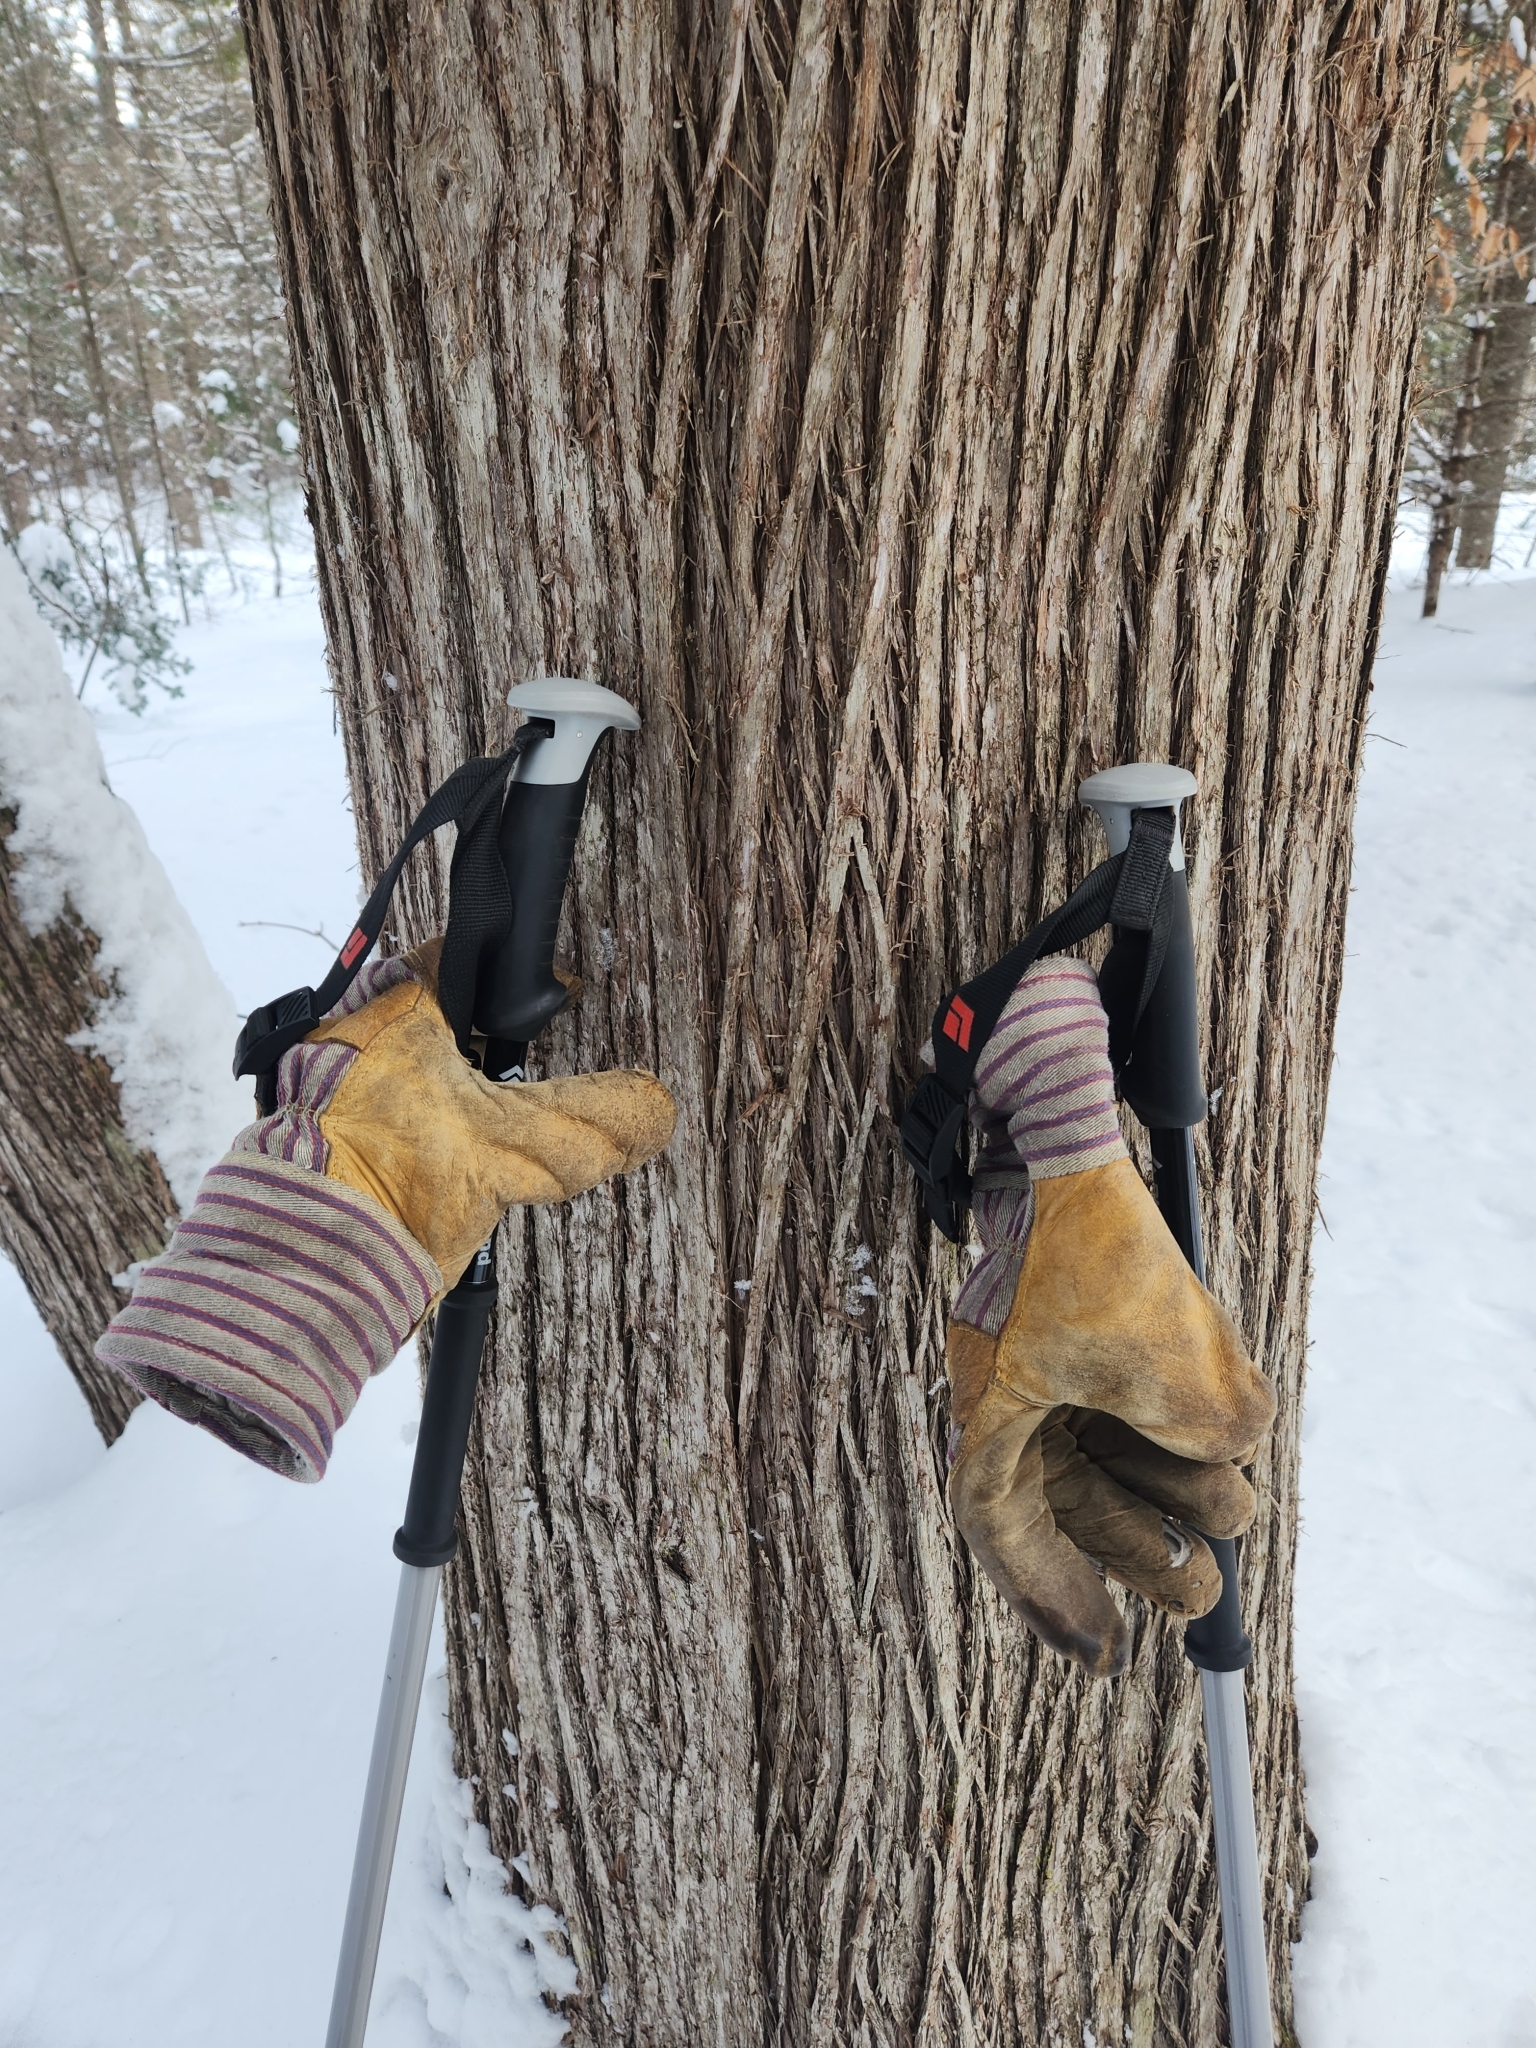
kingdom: Plantae
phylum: Tracheophyta
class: Pinopsida
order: Pinales
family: Cupressaceae
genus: Thuja
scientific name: Thuja occidentalis
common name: Northern white-cedar
